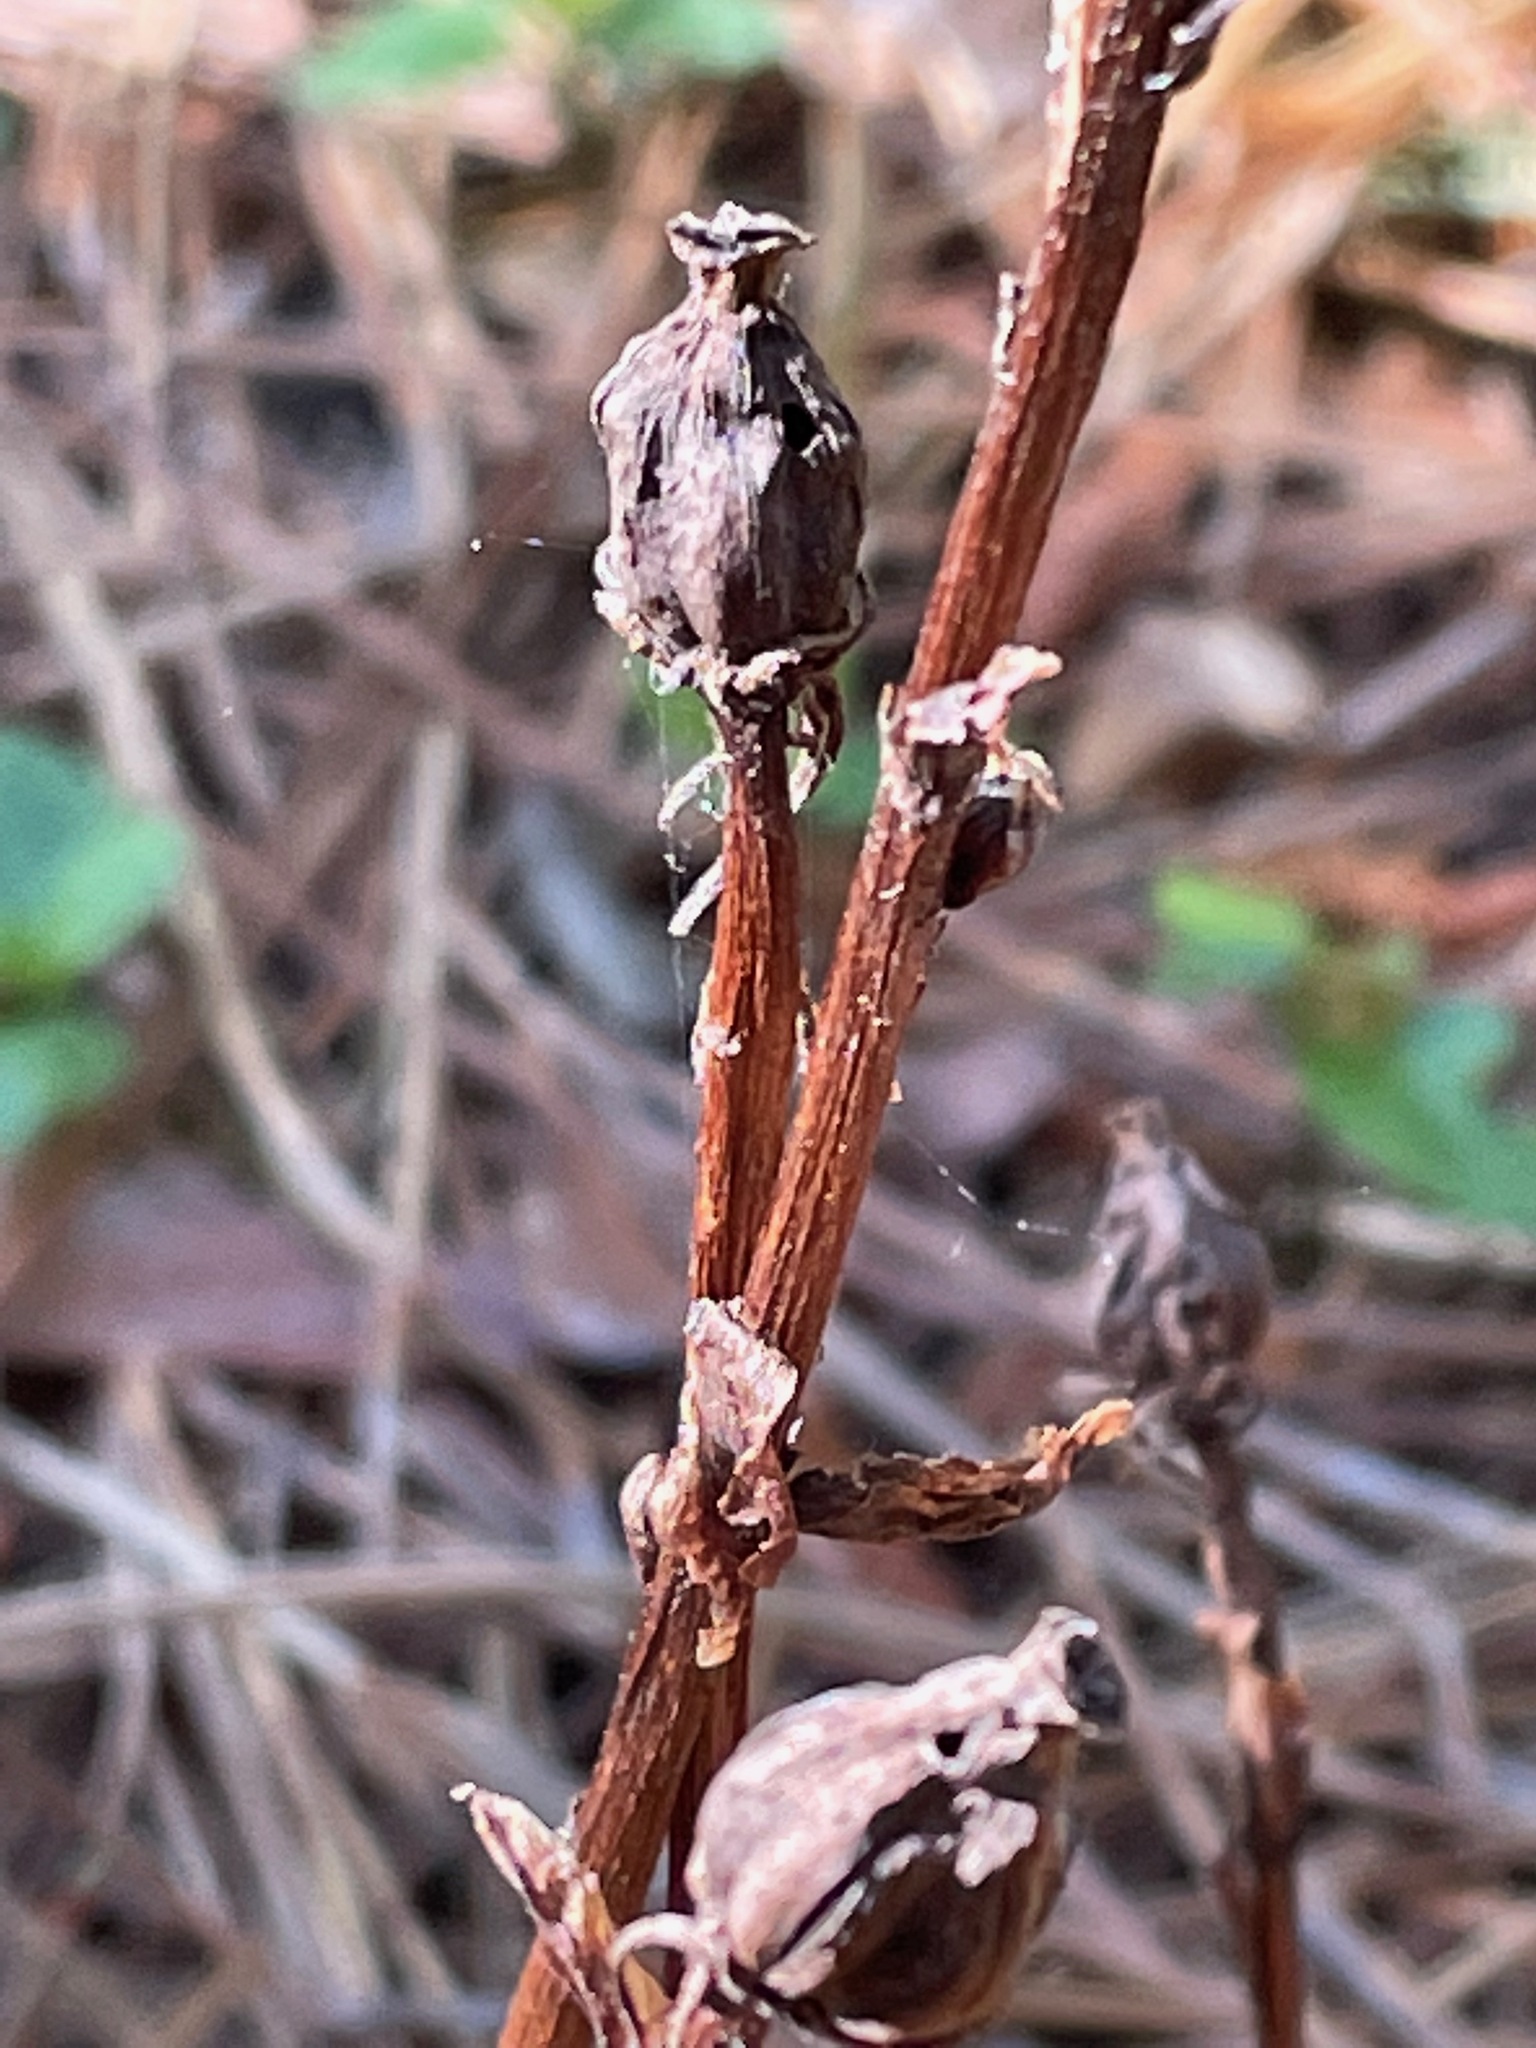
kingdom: Plantae
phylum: Tracheophyta
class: Magnoliopsida
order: Ericales
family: Ericaceae
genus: Monotropa
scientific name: Monotropa uniflora
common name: Convulsion root
